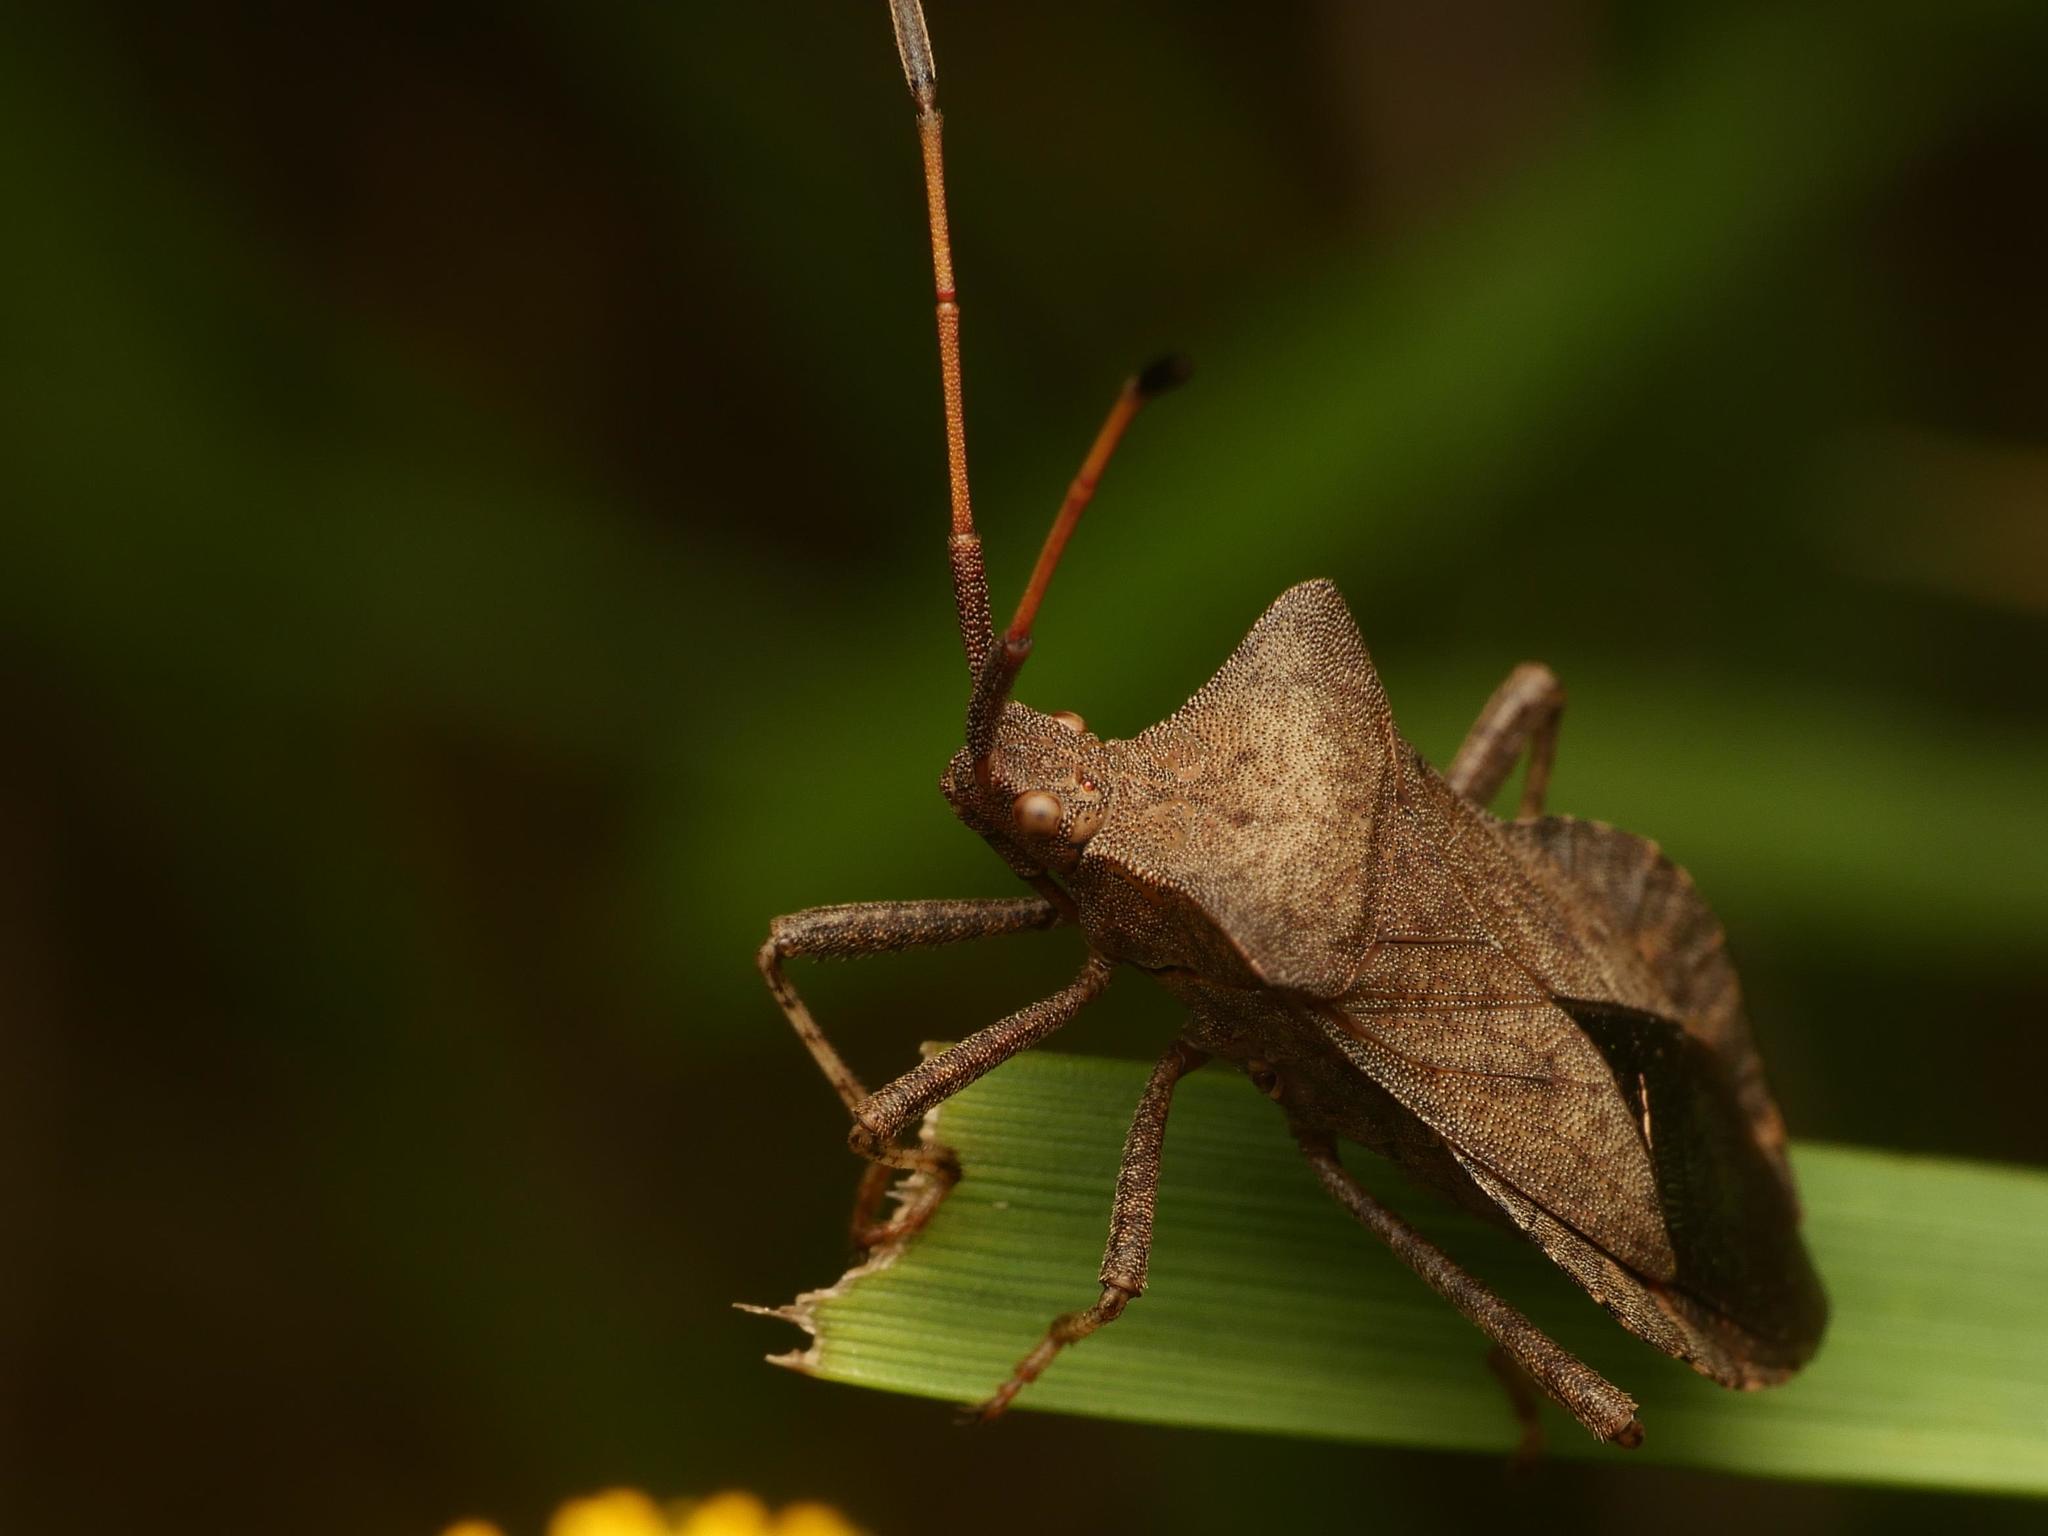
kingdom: Animalia
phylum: Arthropoda
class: Insecta
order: Hemiptera
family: Coreidae
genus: Coreus
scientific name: Coreus marginatus
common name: Dock bug
